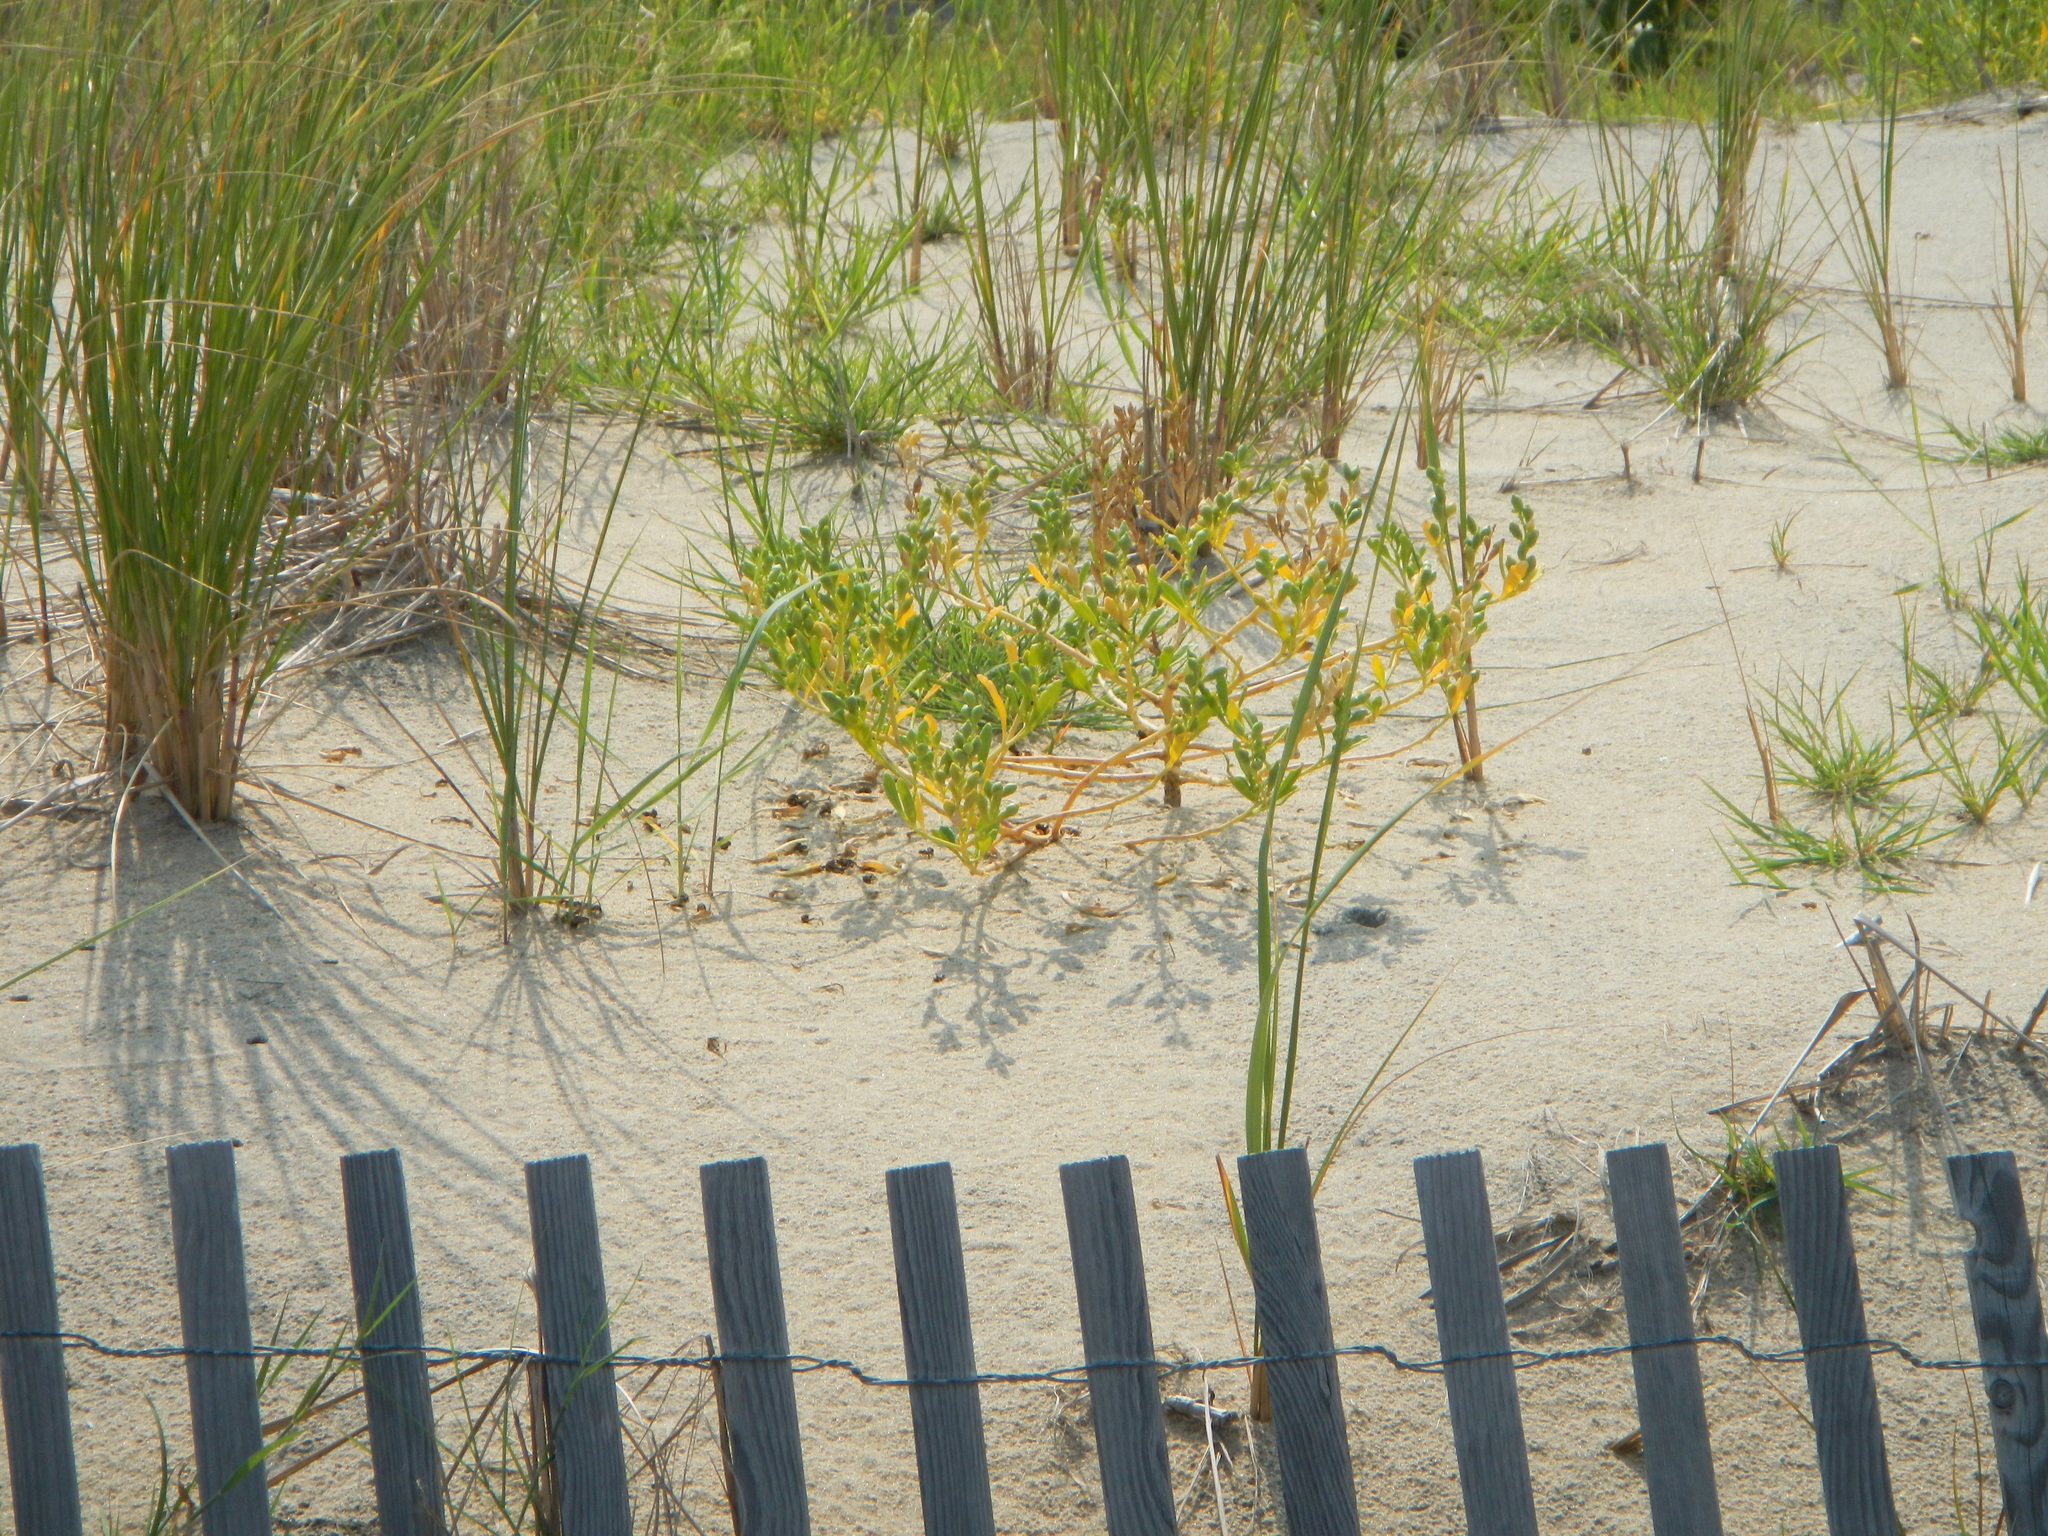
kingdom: Plantae
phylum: Tracheophyta
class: Magnoliopsida
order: Brassicales
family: Brassicaceae
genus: Cakile
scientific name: Cakile edentula
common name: American sea rocket
